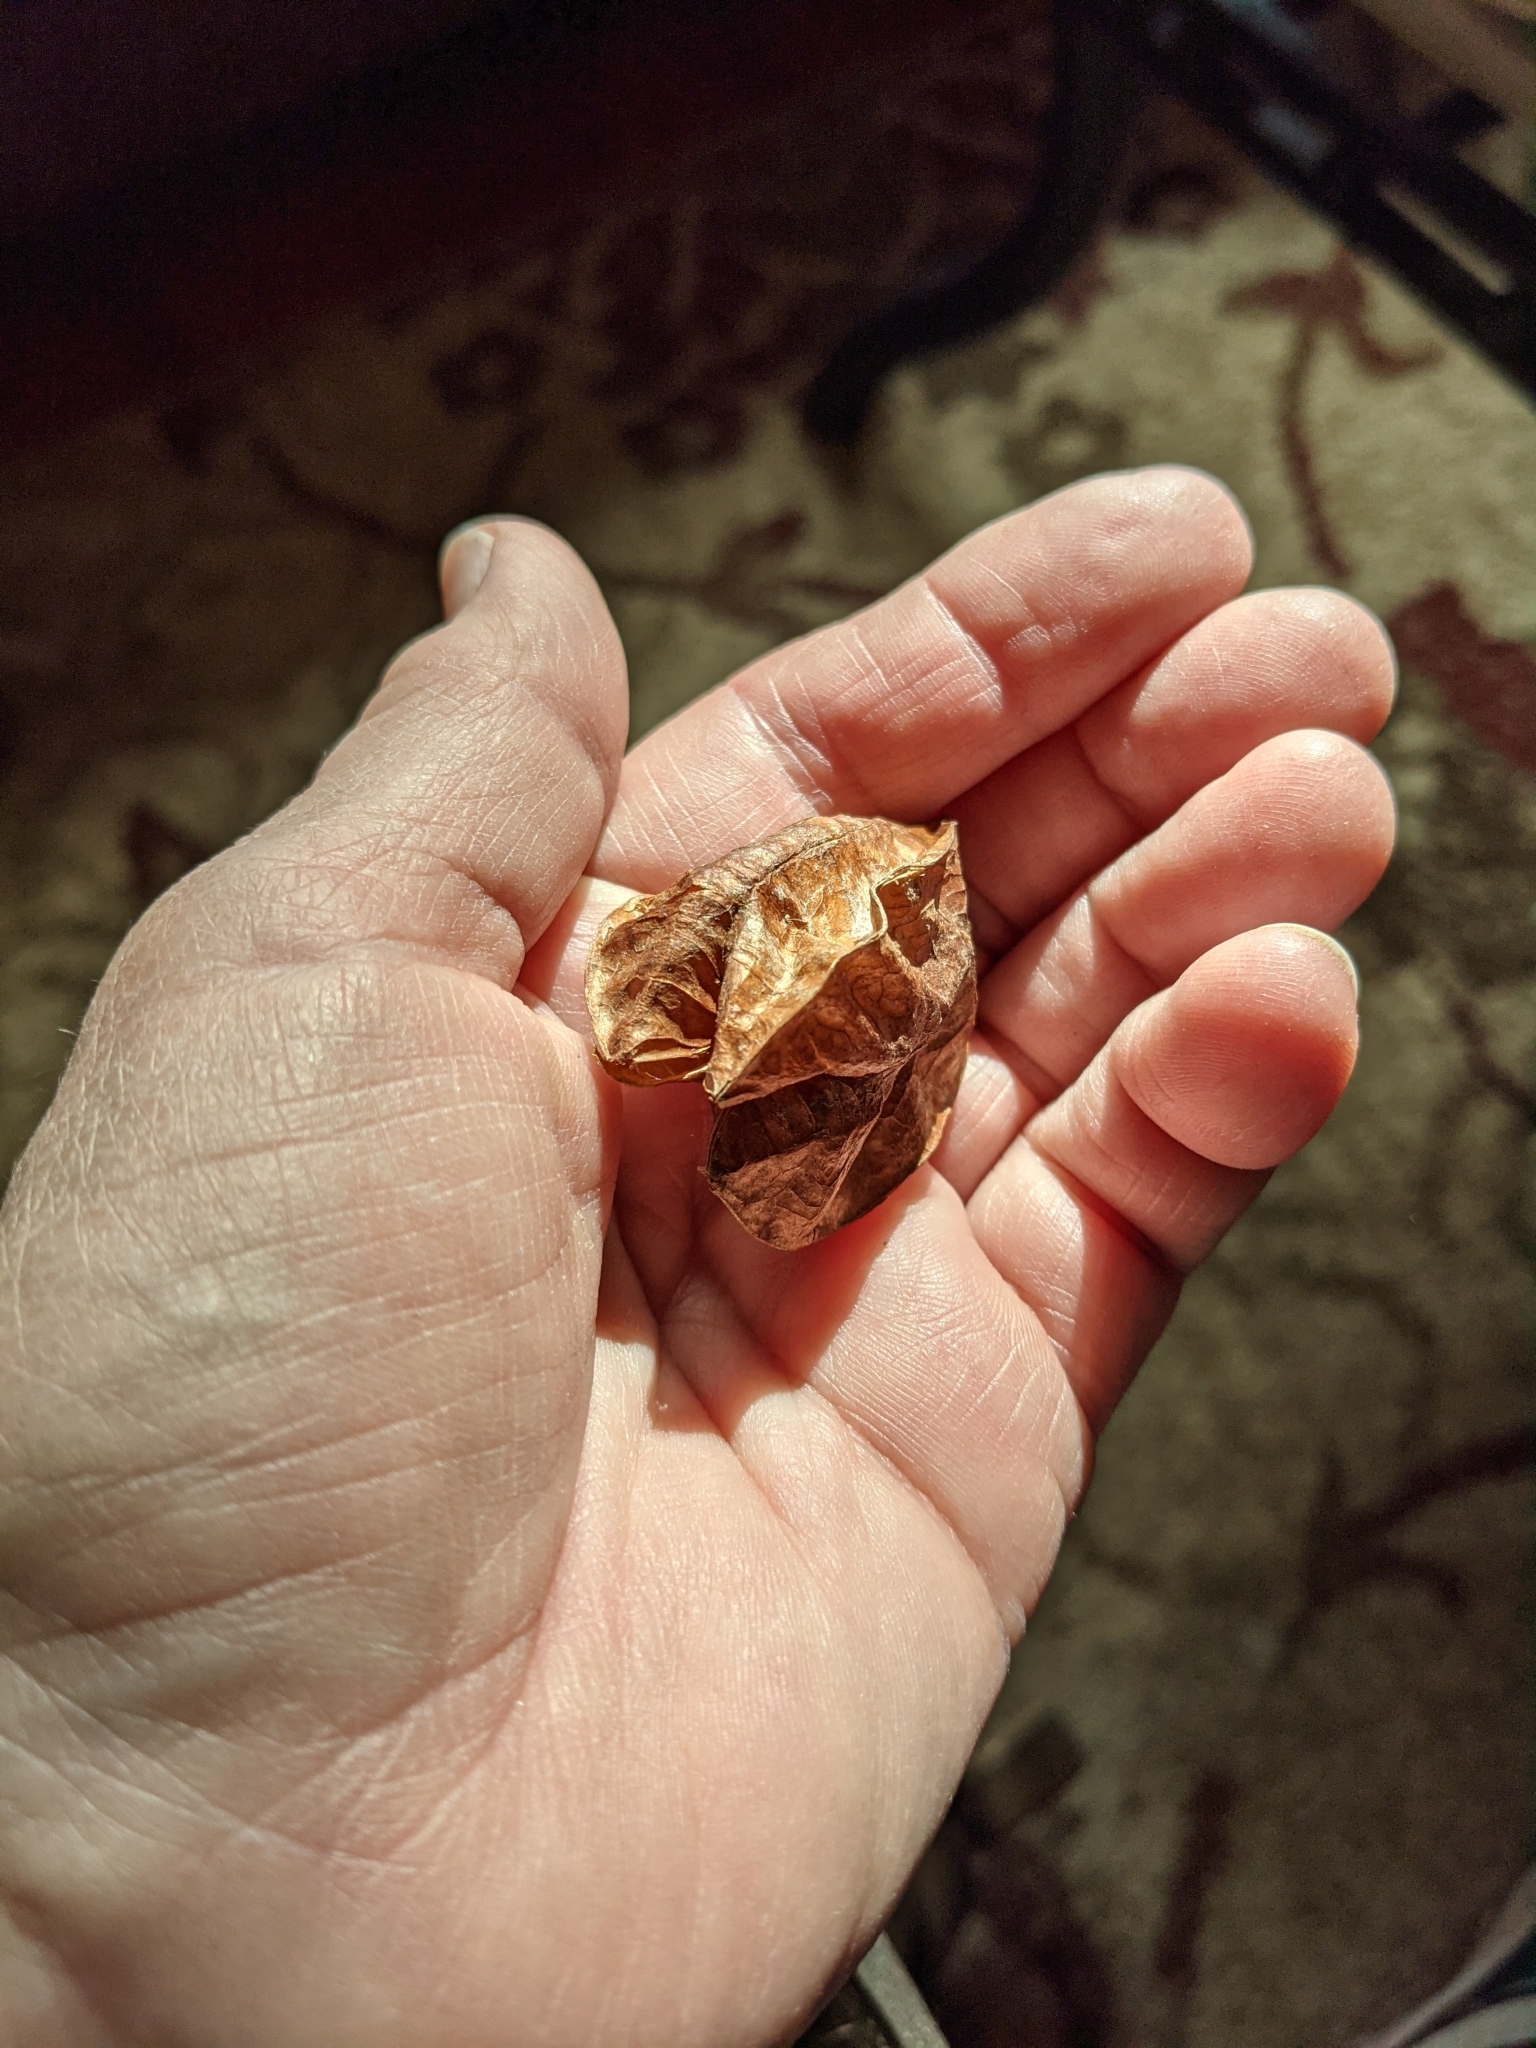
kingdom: Plantae
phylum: Tracheophyta
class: Magnoliopsida
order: Crossosomatales
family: Staphyleaceae
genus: Staphylea
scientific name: Staphylea trifolia
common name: American bladdernut
